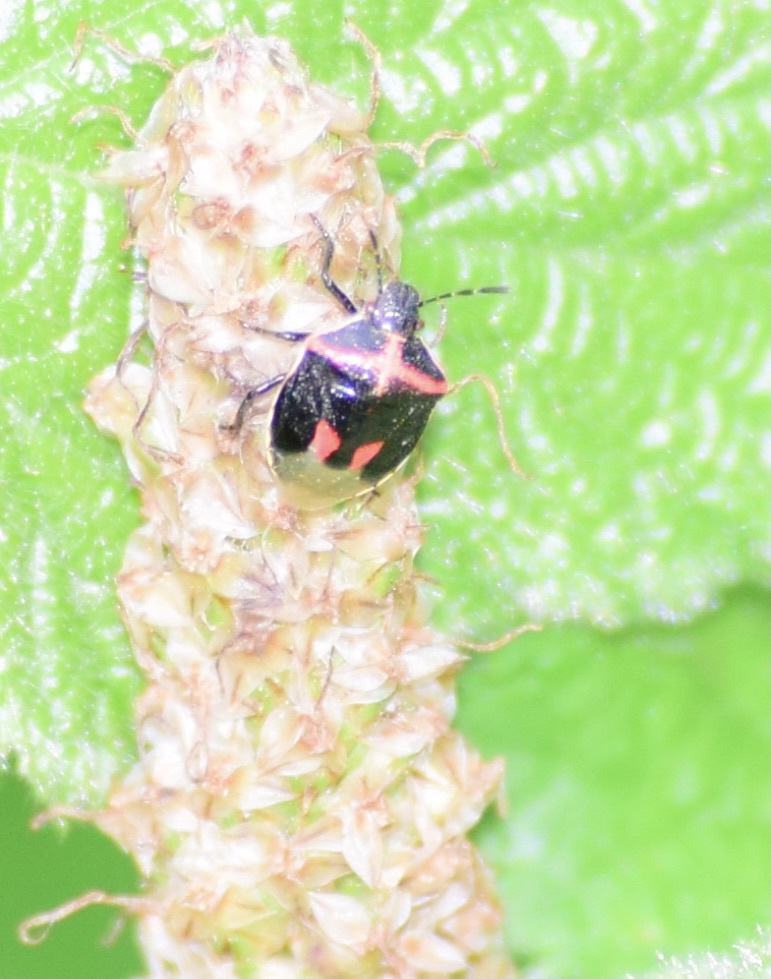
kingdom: Animalia
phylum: Arthropoda
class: Insecta
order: Hemiptera
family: Pentatomidae
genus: Cosmopepla
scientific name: Cosmopepla lintneriana
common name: Twice-stabbed stink bug
